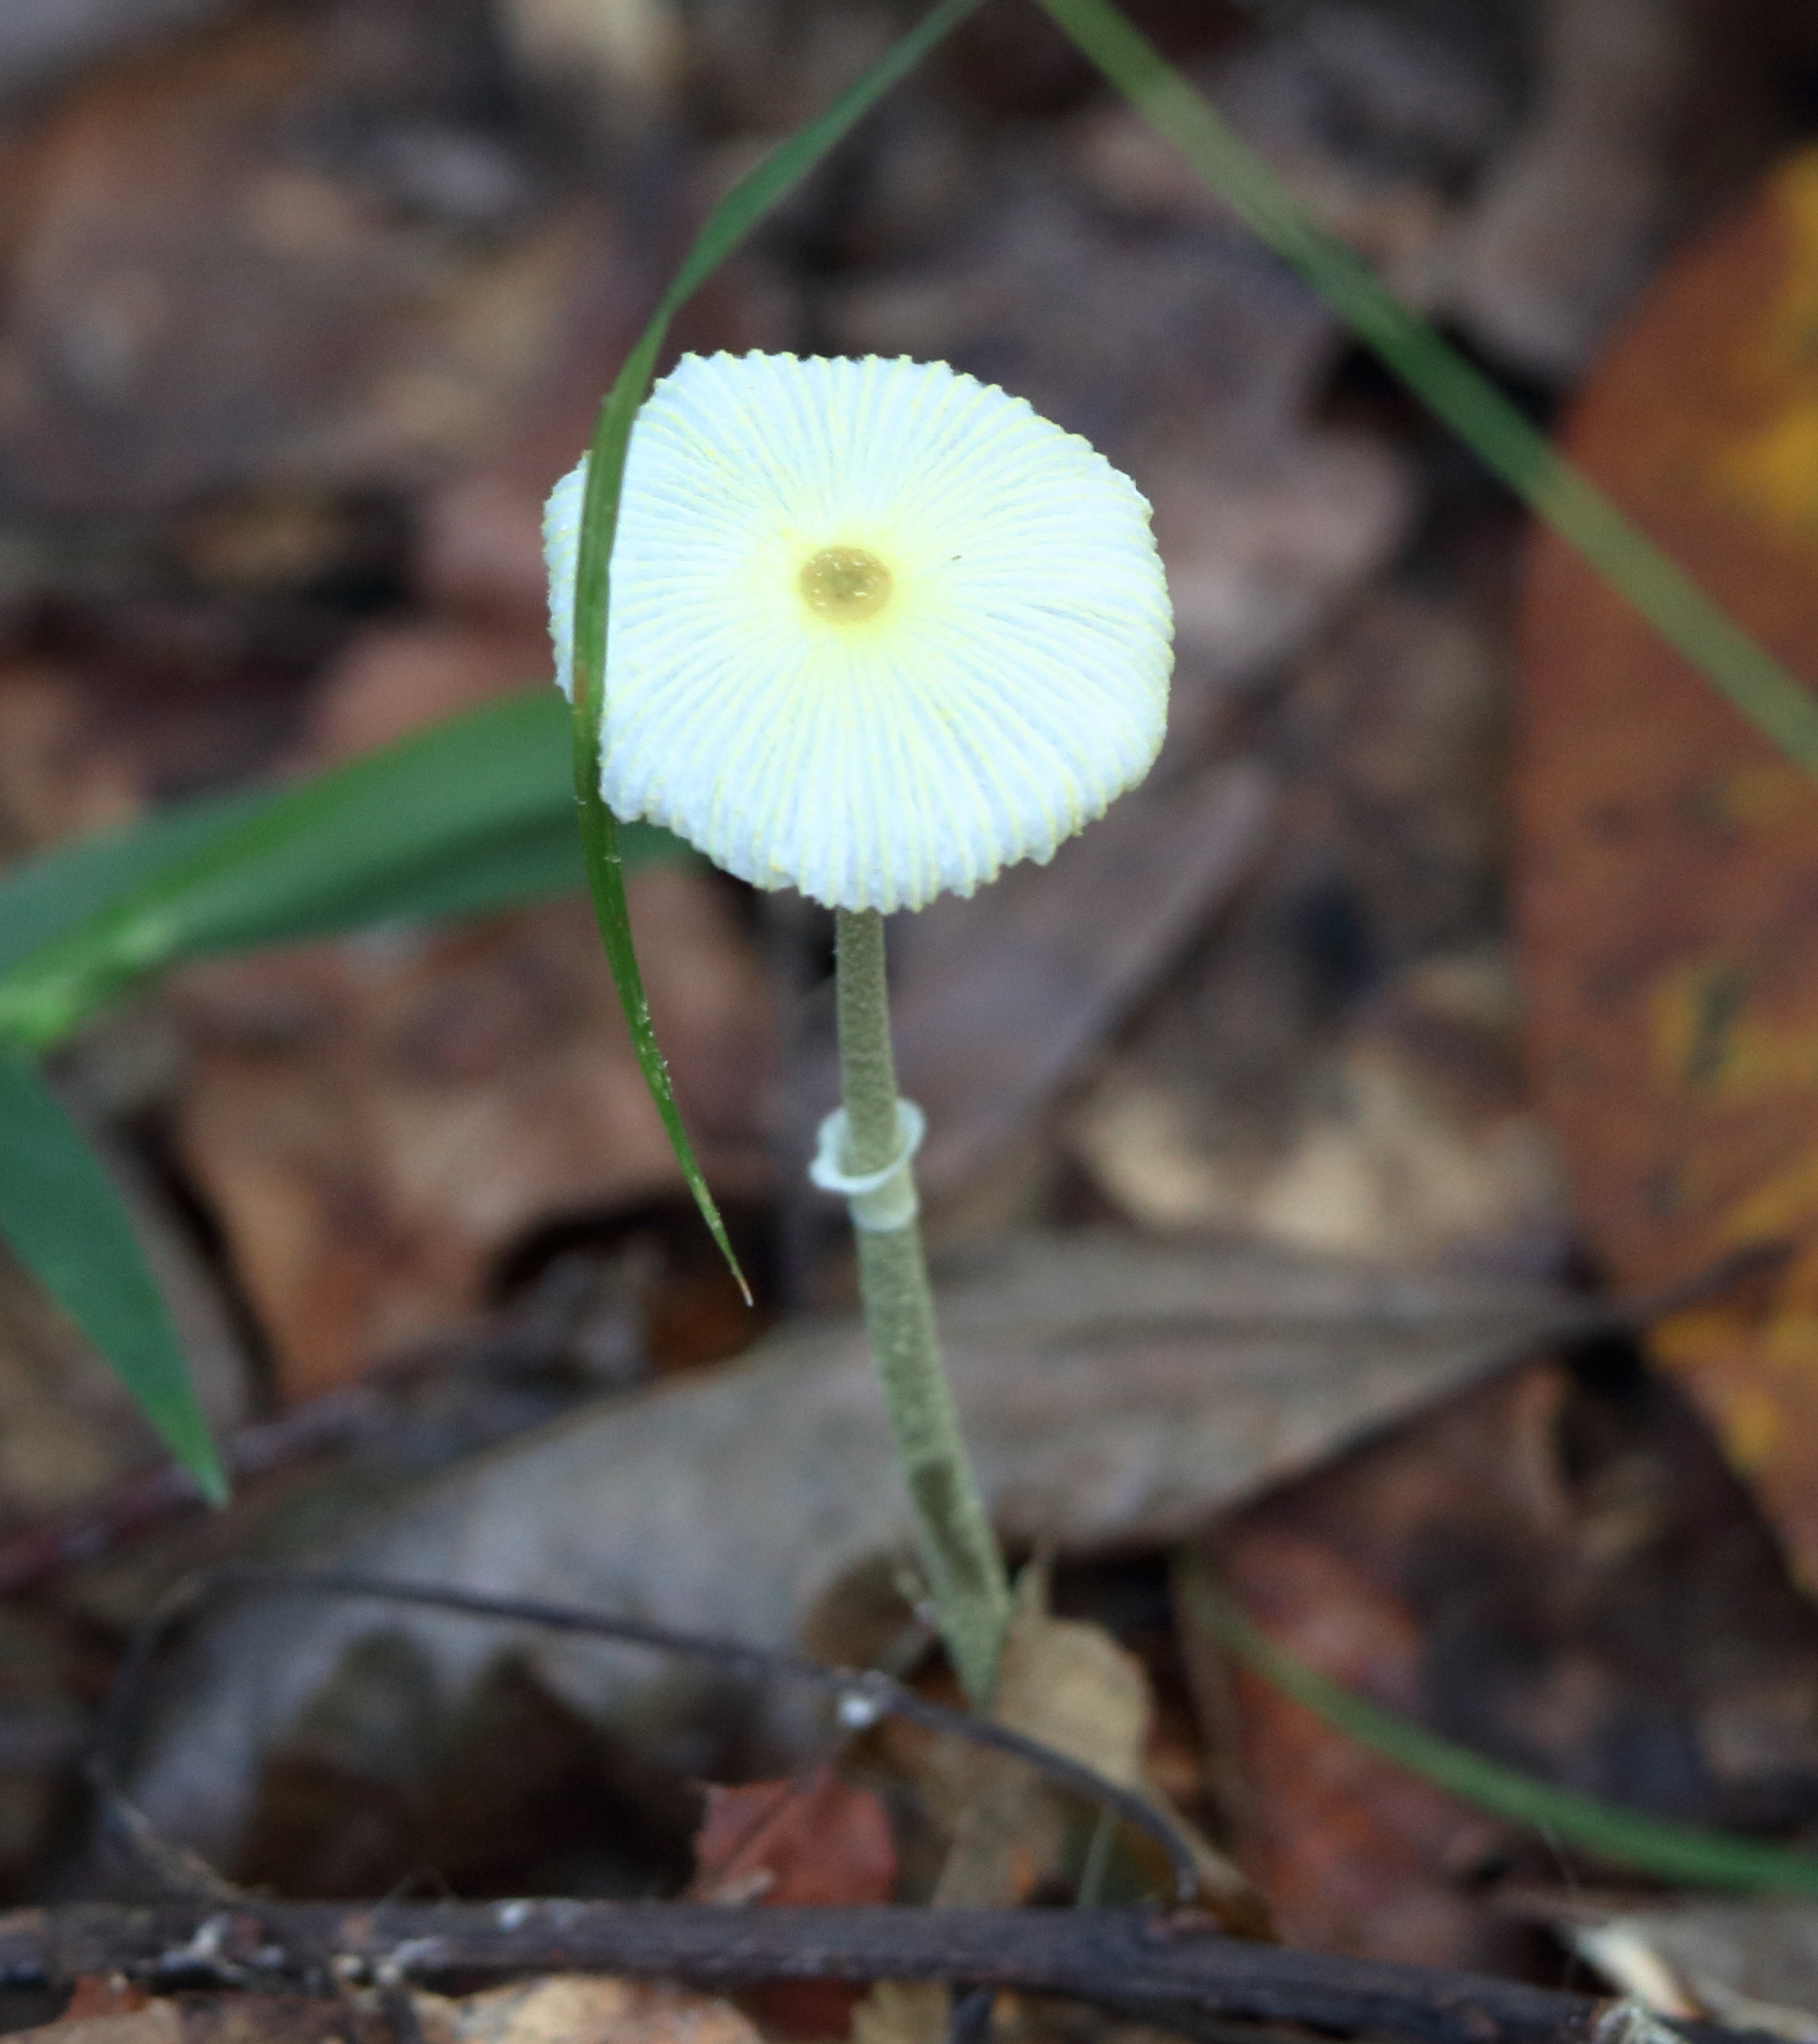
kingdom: Fungi
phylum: Basidiomycota
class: Agaricomycetes
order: Agaricales
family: Agaricaceae
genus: Leucocoprinus
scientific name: Leucocoprinus fragilissimus
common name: Fragile dapperling
